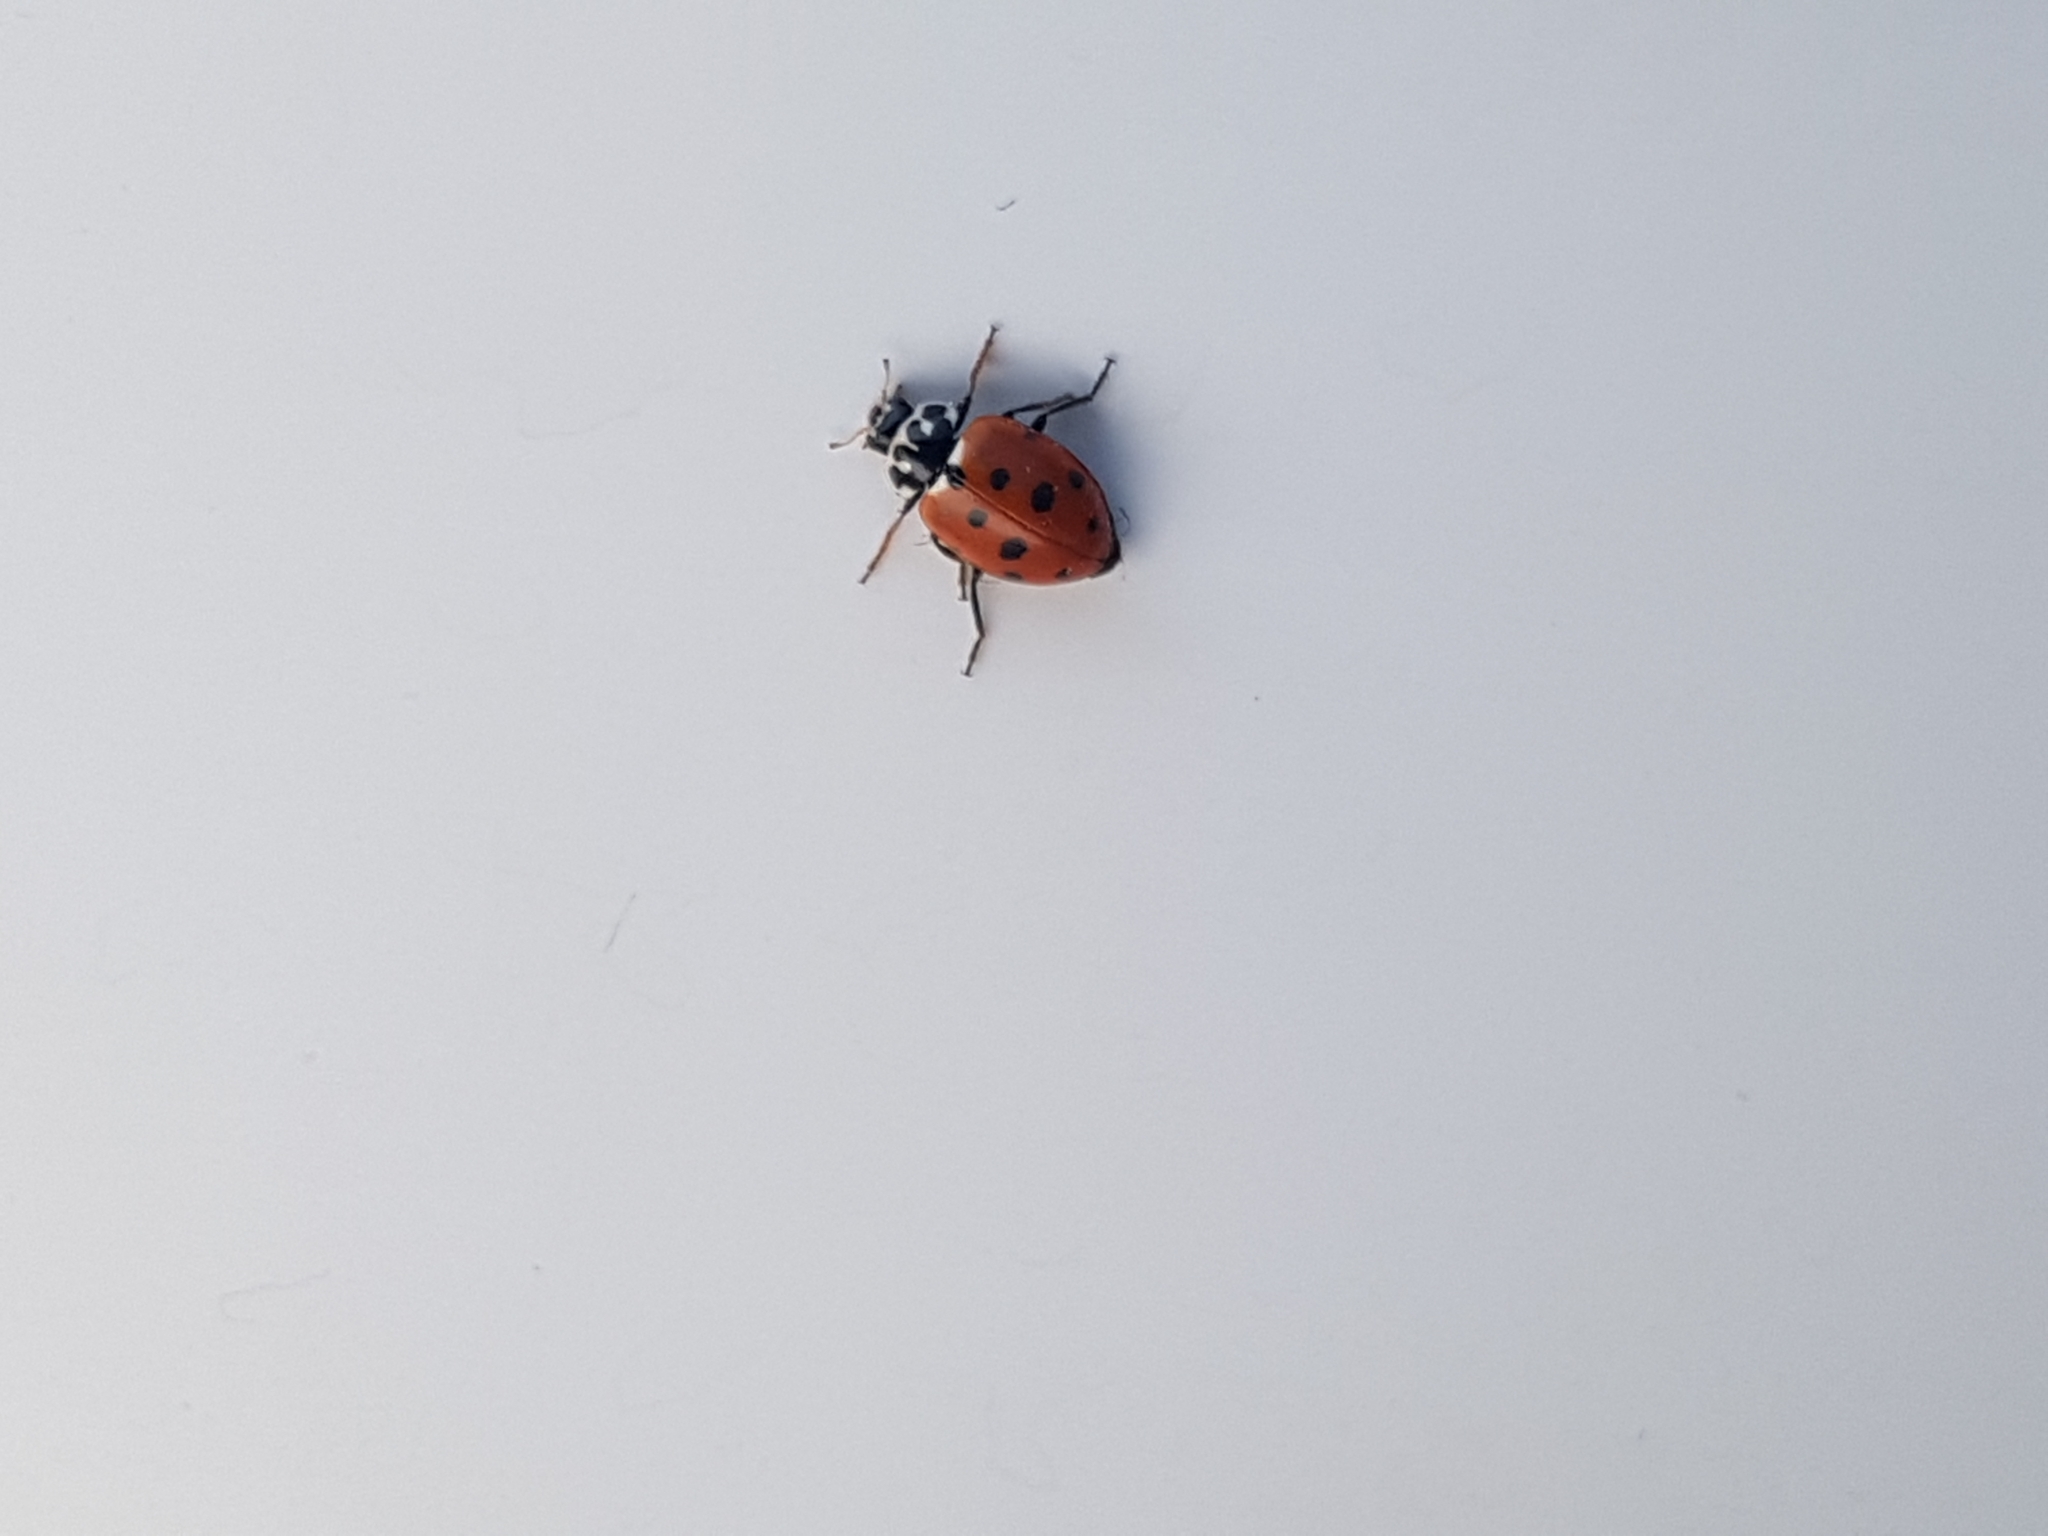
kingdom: Animalia
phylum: Arthropoda
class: Insecta
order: Coleoptera
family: Coccinellidae
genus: Hippodamia
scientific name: Hippodamia variegata
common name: Ladybird beetle
